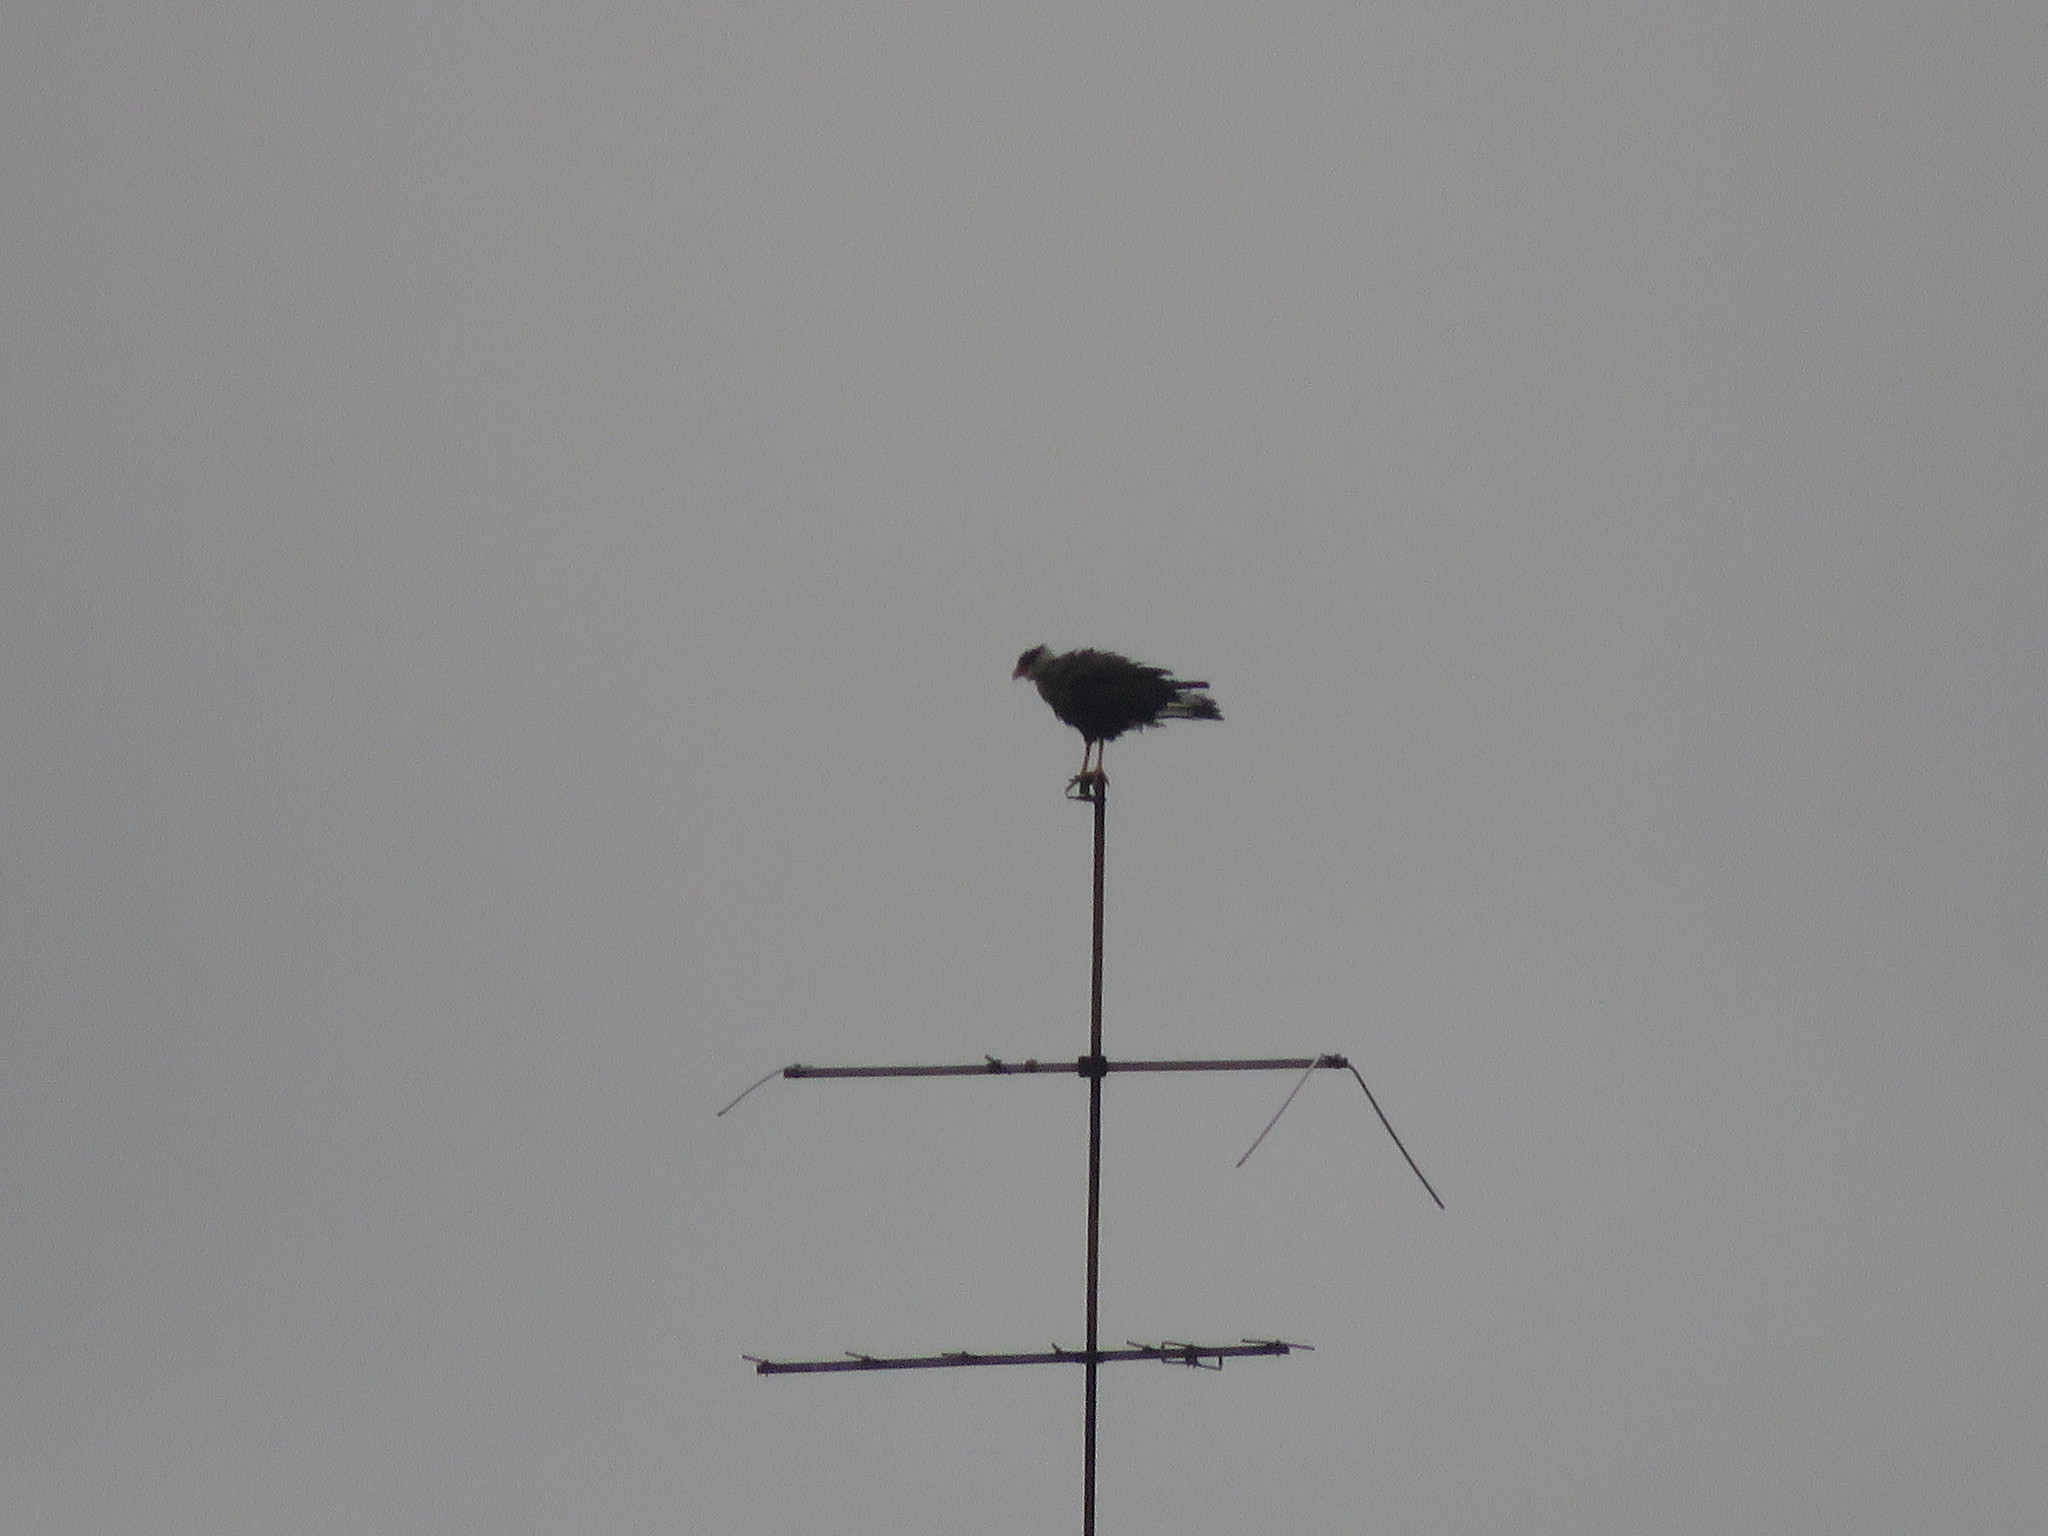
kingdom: Animalia
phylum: Chordata
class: Aves
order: Falconiformes
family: Falconidae
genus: Caracara
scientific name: Caracara plancus
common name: Southern caracara
